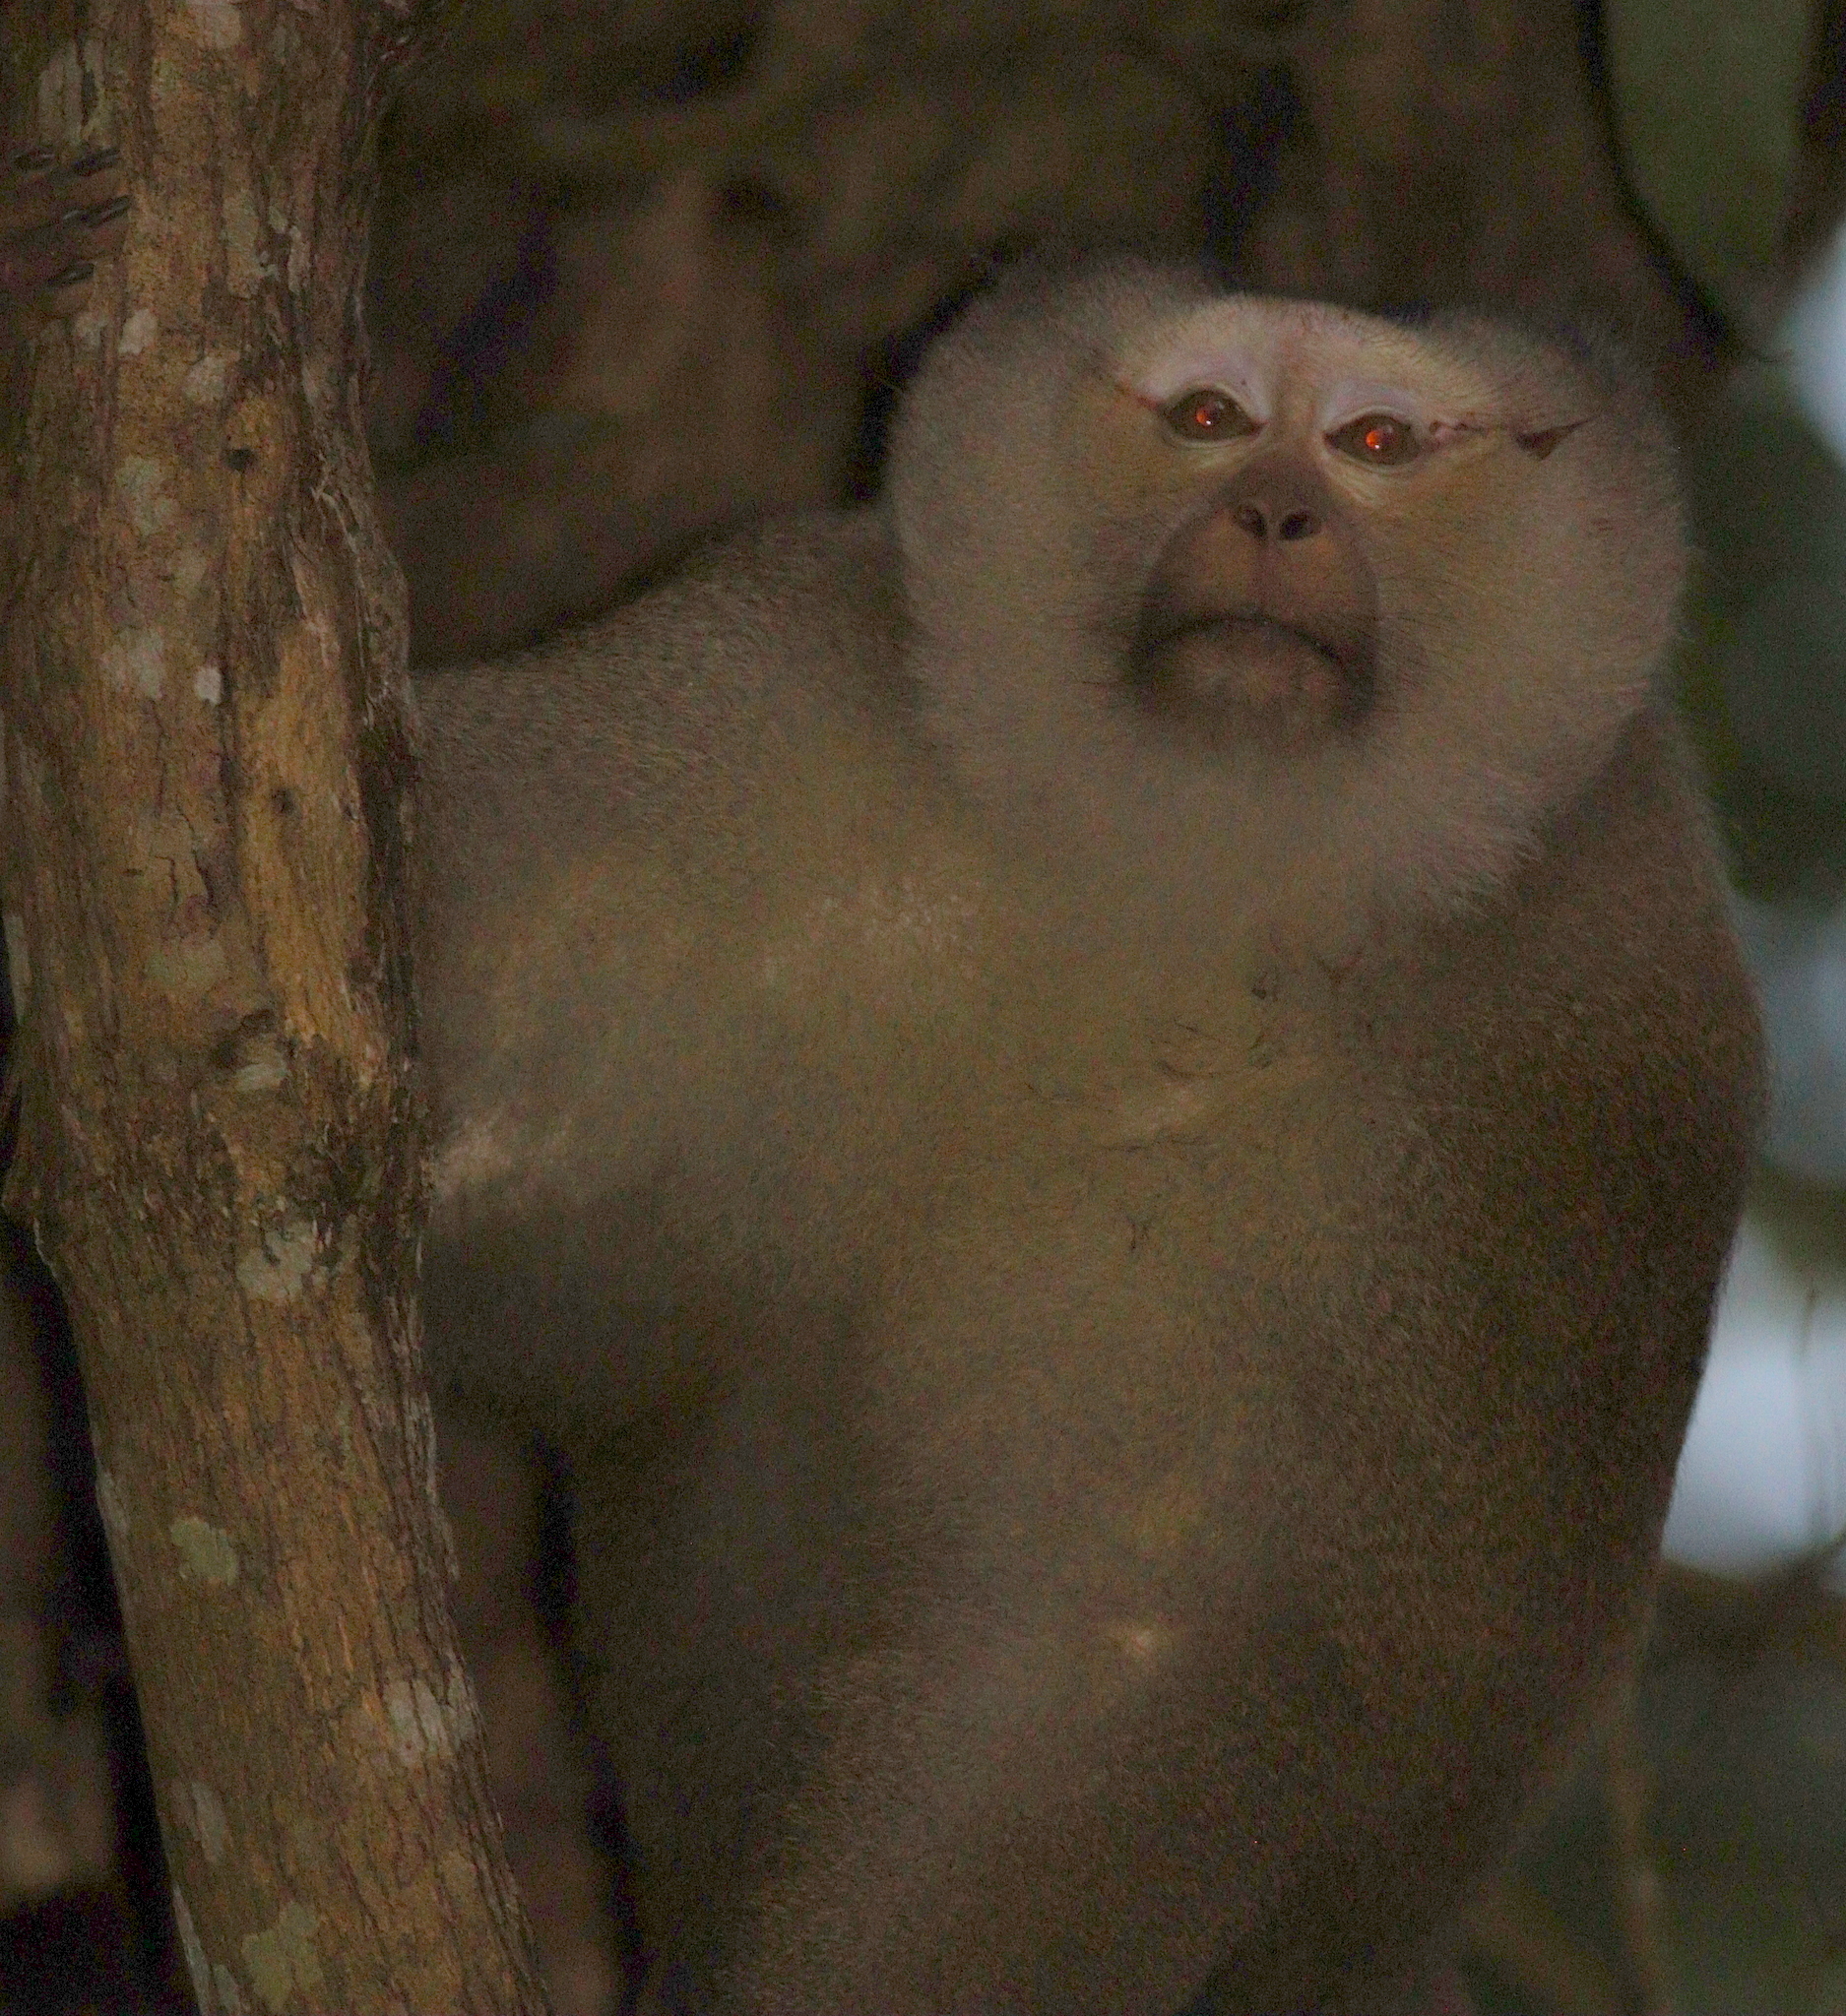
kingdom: Animalia
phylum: Chordata
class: Mammalia
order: Primates
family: Cercopithecidae
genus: Macaca
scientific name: Macaca leonina
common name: Northern pig-tailed macaque
